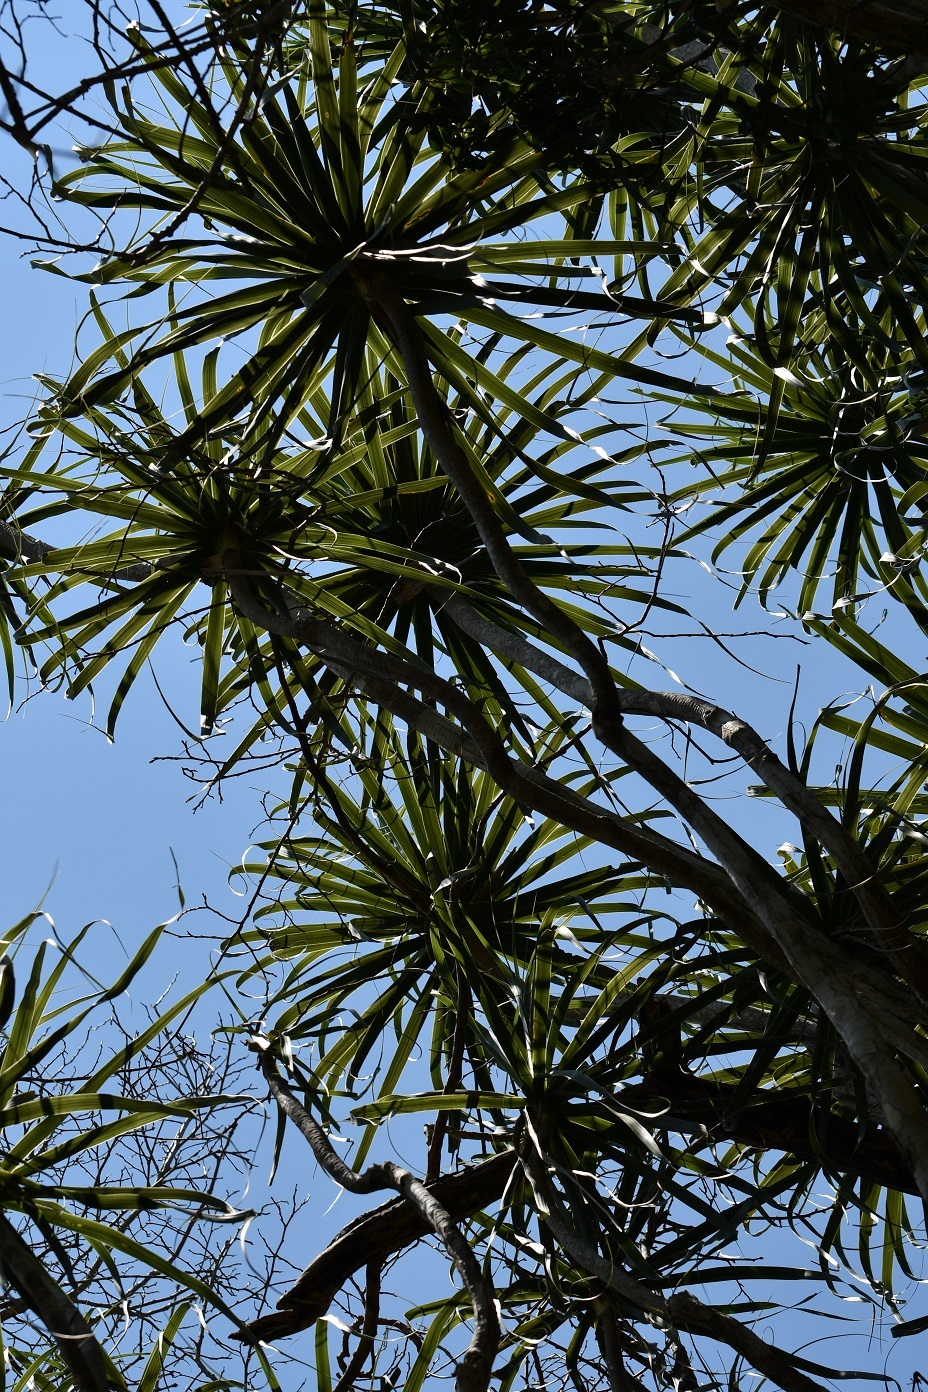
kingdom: Plantae
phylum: Tracheophyta
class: Liliopsida
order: Asparagales
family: Asparagaceae
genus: Beaucarnea
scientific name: Beaucarnea goldmanii
